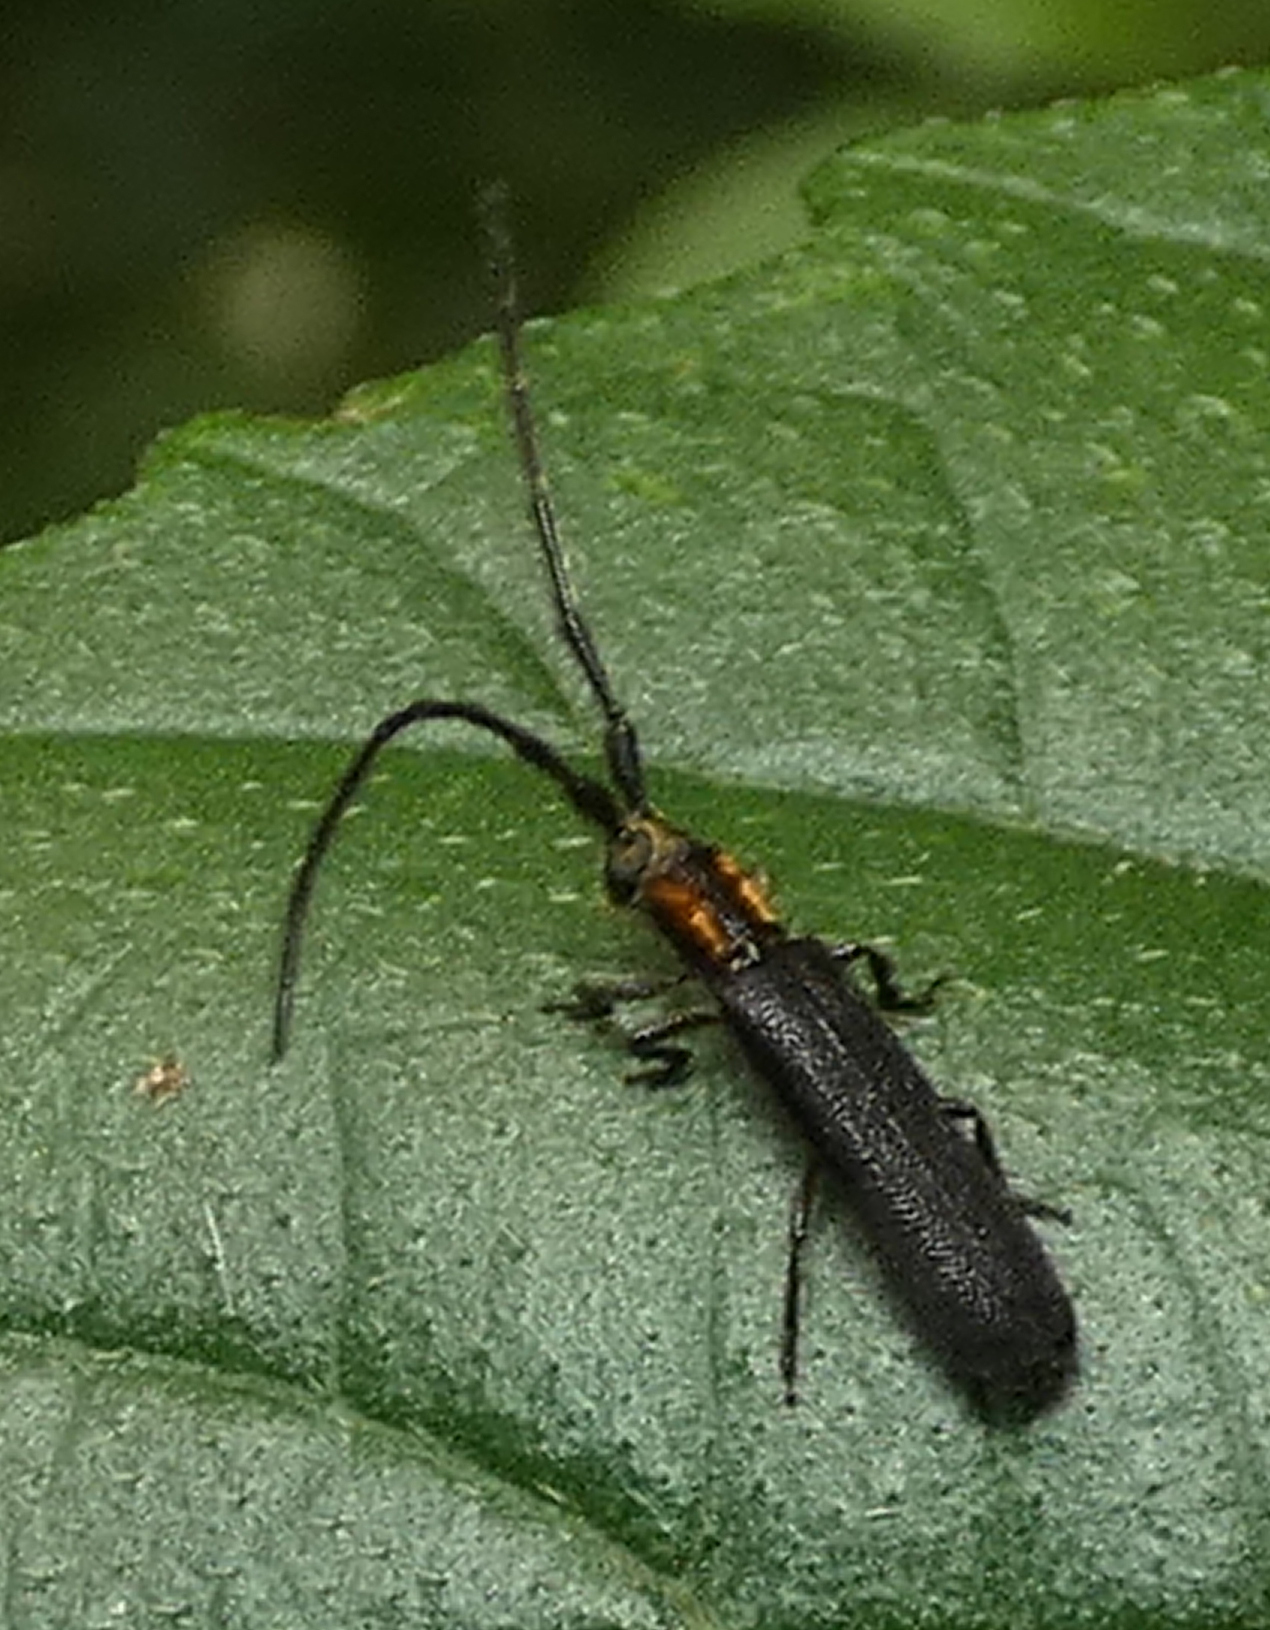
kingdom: Animalia
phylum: Arthropoda
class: Insecta
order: Coleoptera
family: Cerambycidae
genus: Antodice
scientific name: Antodice aureicollis
